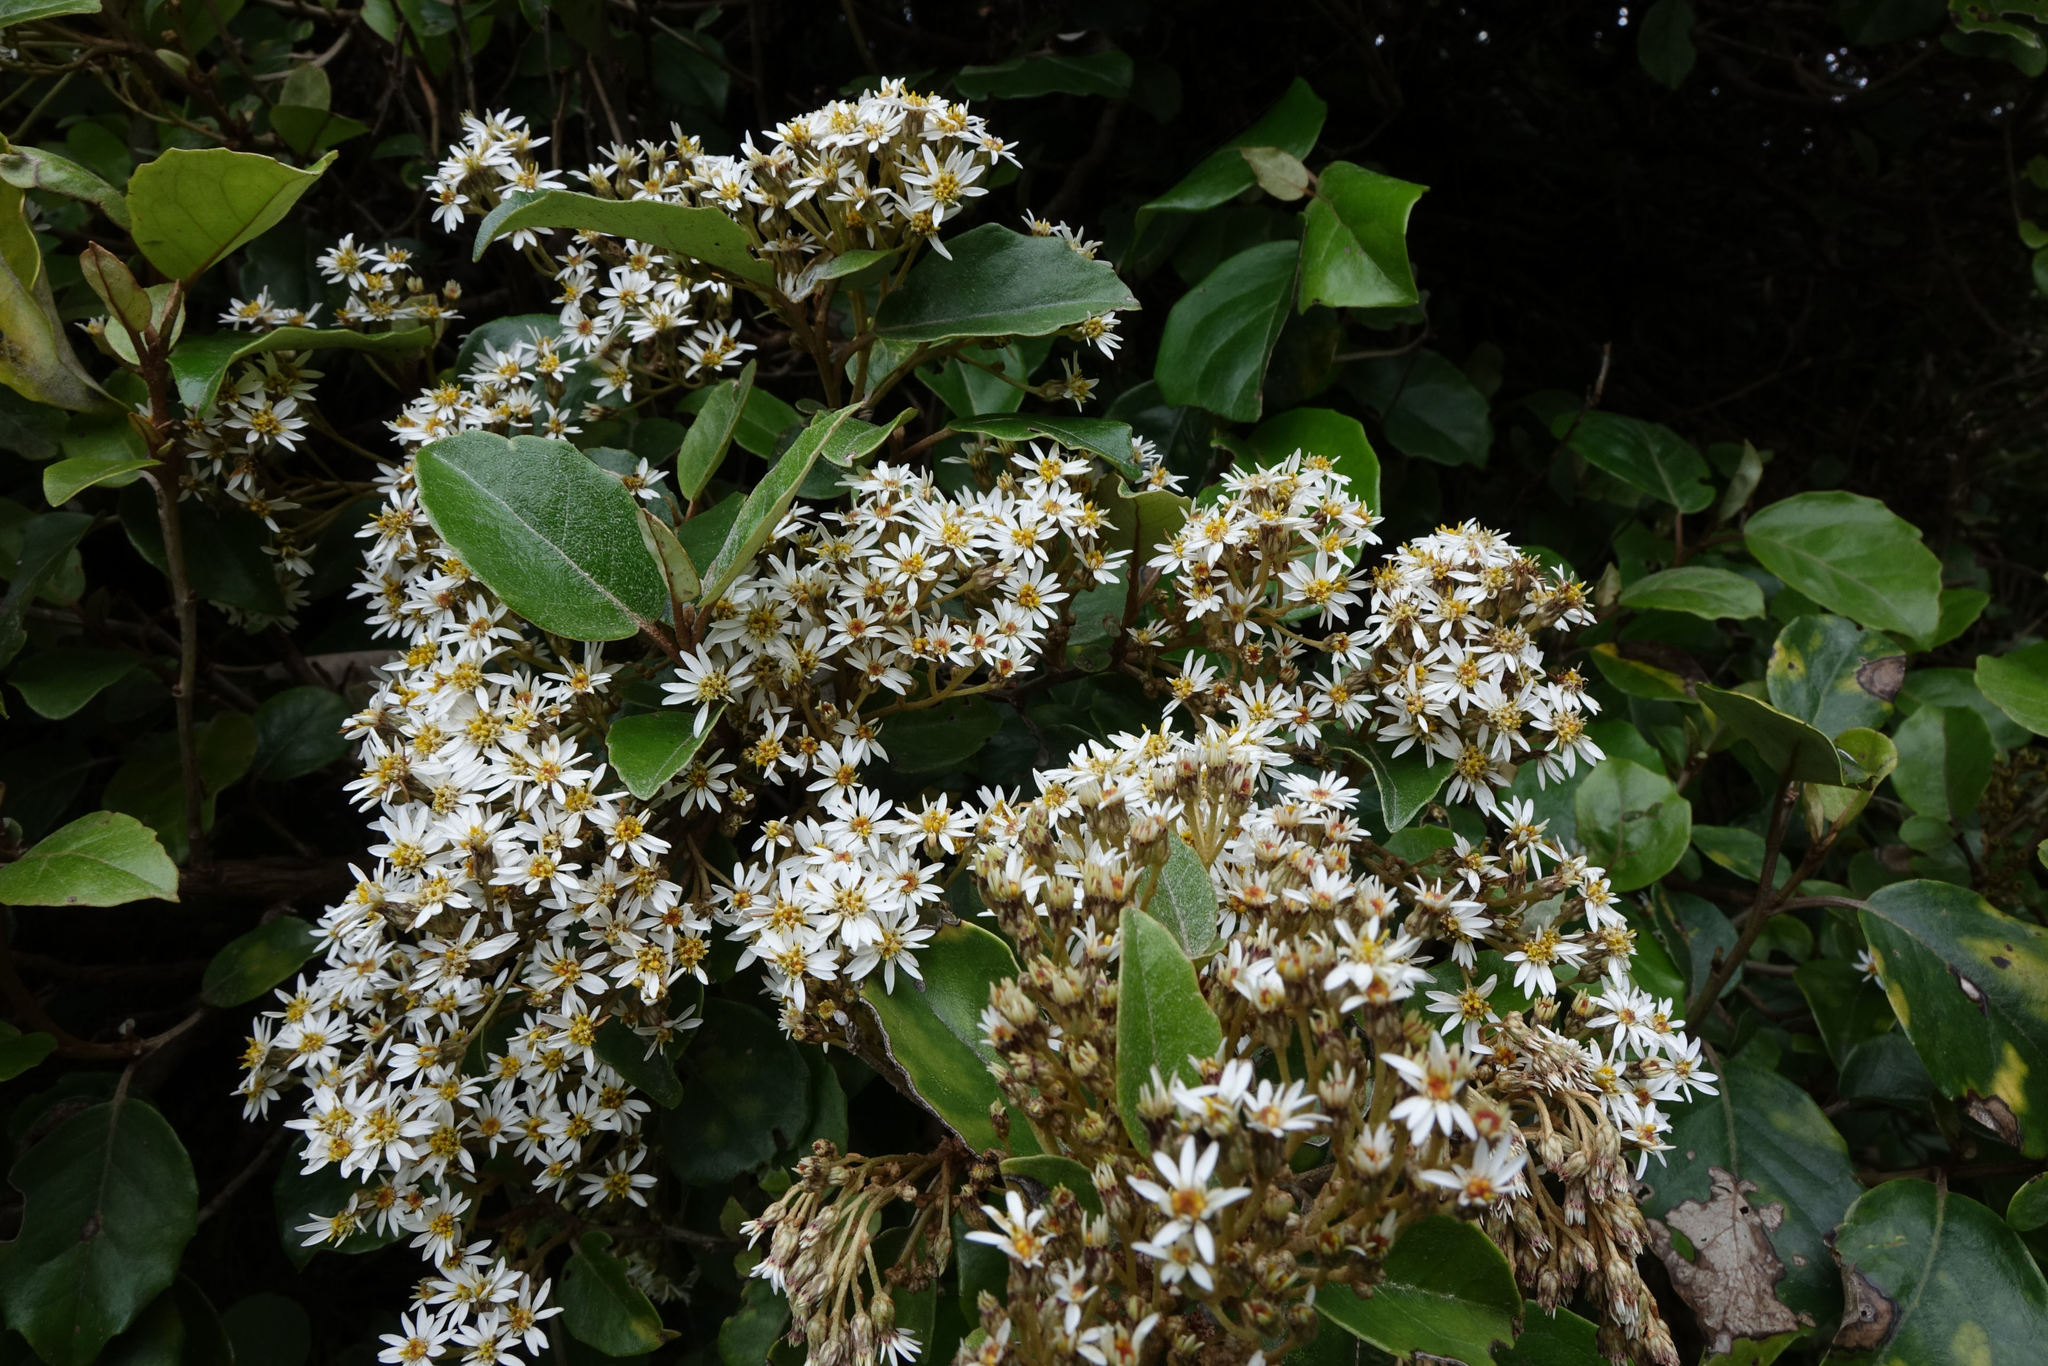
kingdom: Plantae
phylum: Tracheophyta
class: Magnoliopsida
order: Asterales
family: Asteraceae
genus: Olearia
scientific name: Olearia arborescens
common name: Glossy tree daisy
